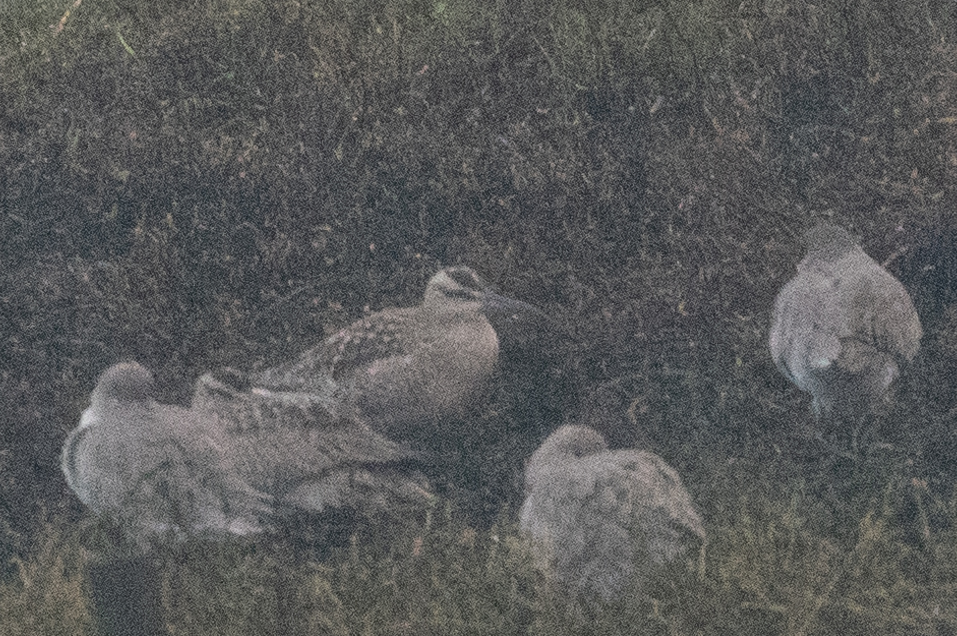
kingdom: Animalia
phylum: Chordata
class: Aves
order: Charadriiformes
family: Scolopacidae
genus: Numenius
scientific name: Numenius phaeopus
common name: Whimbrel
